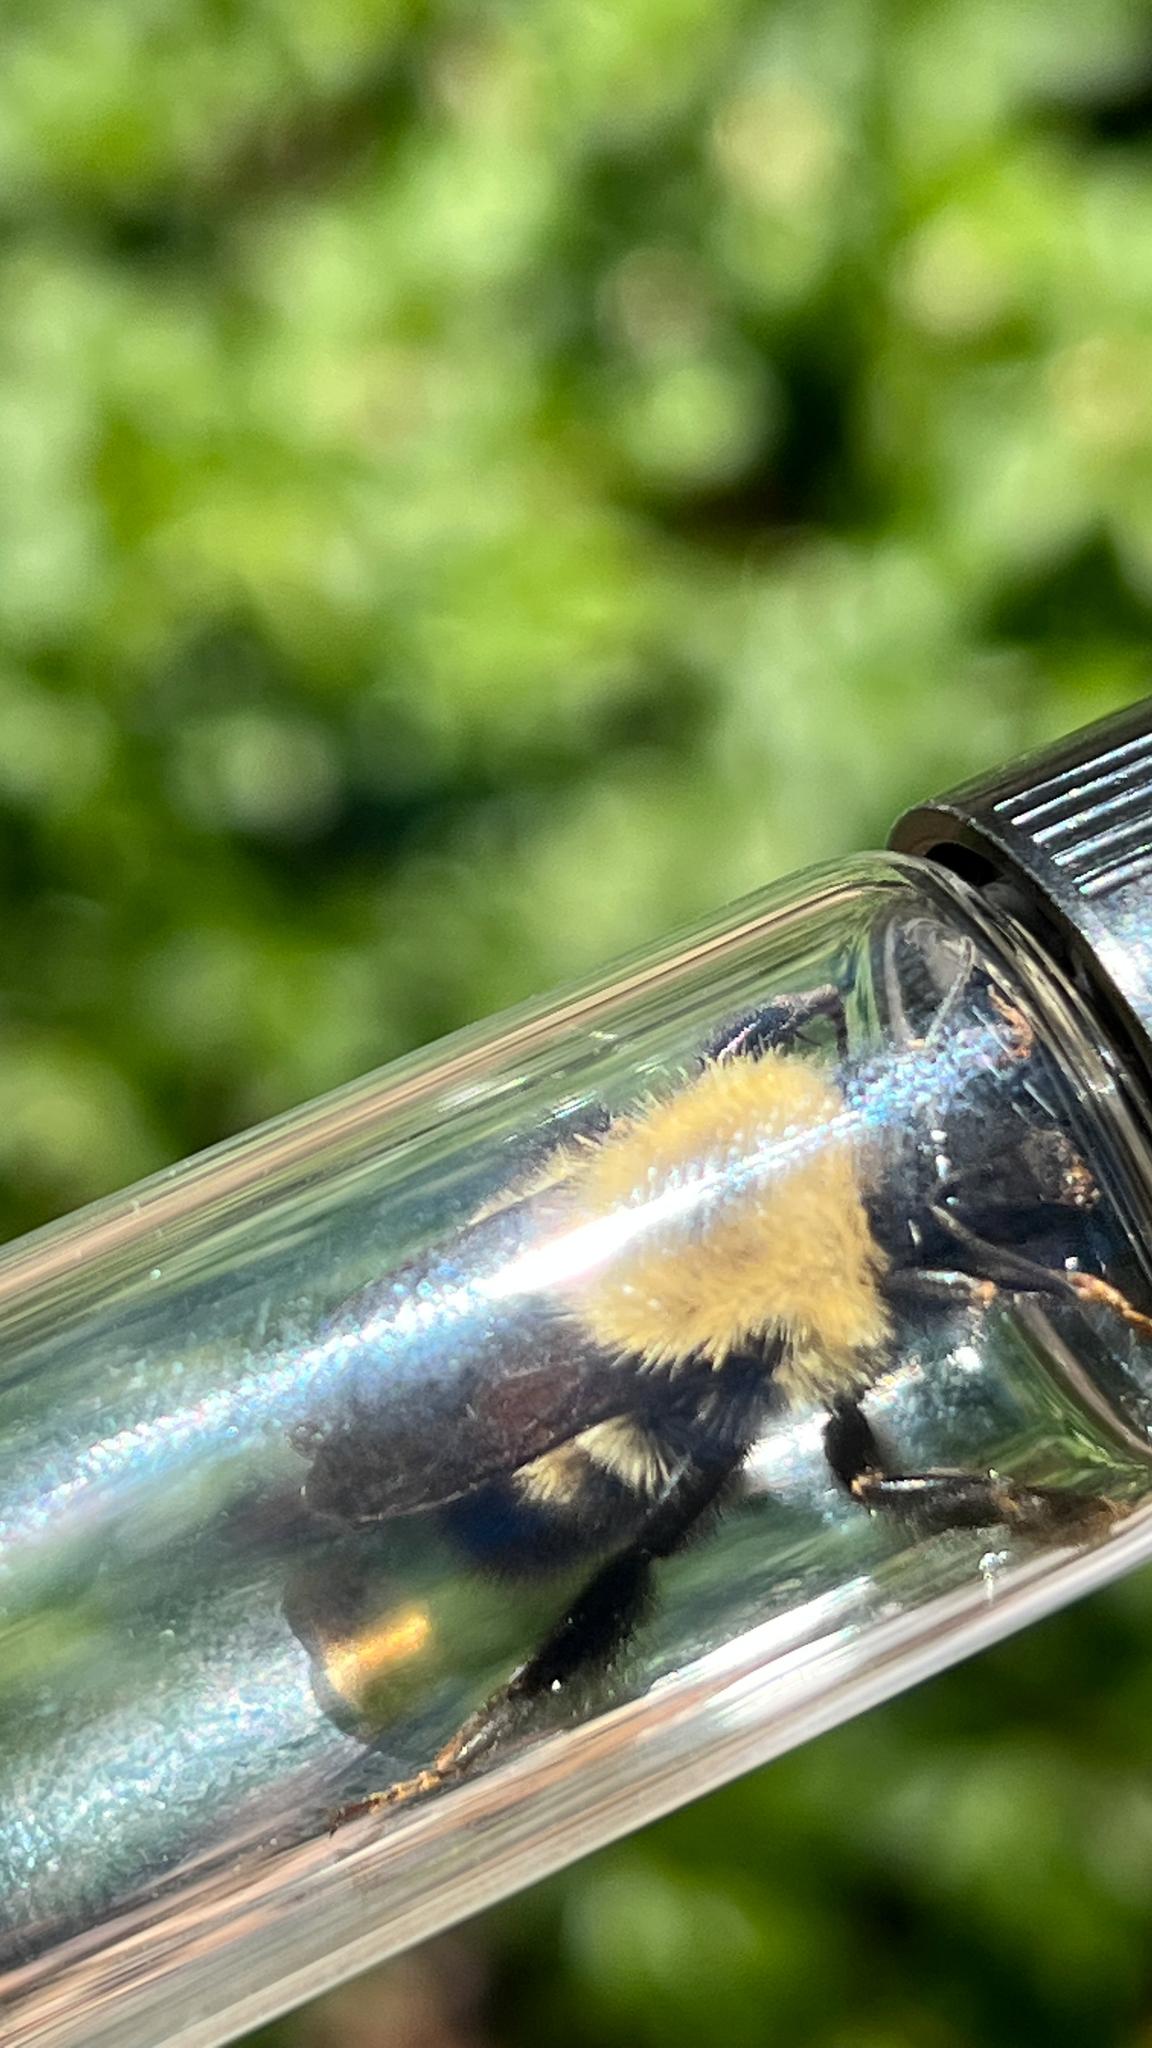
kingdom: Animalia
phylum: Arthropoda
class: Insecta
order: Hymenoptera
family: Apidae
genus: Bombus
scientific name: Bombus perplexus
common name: Confusing bumble bee
